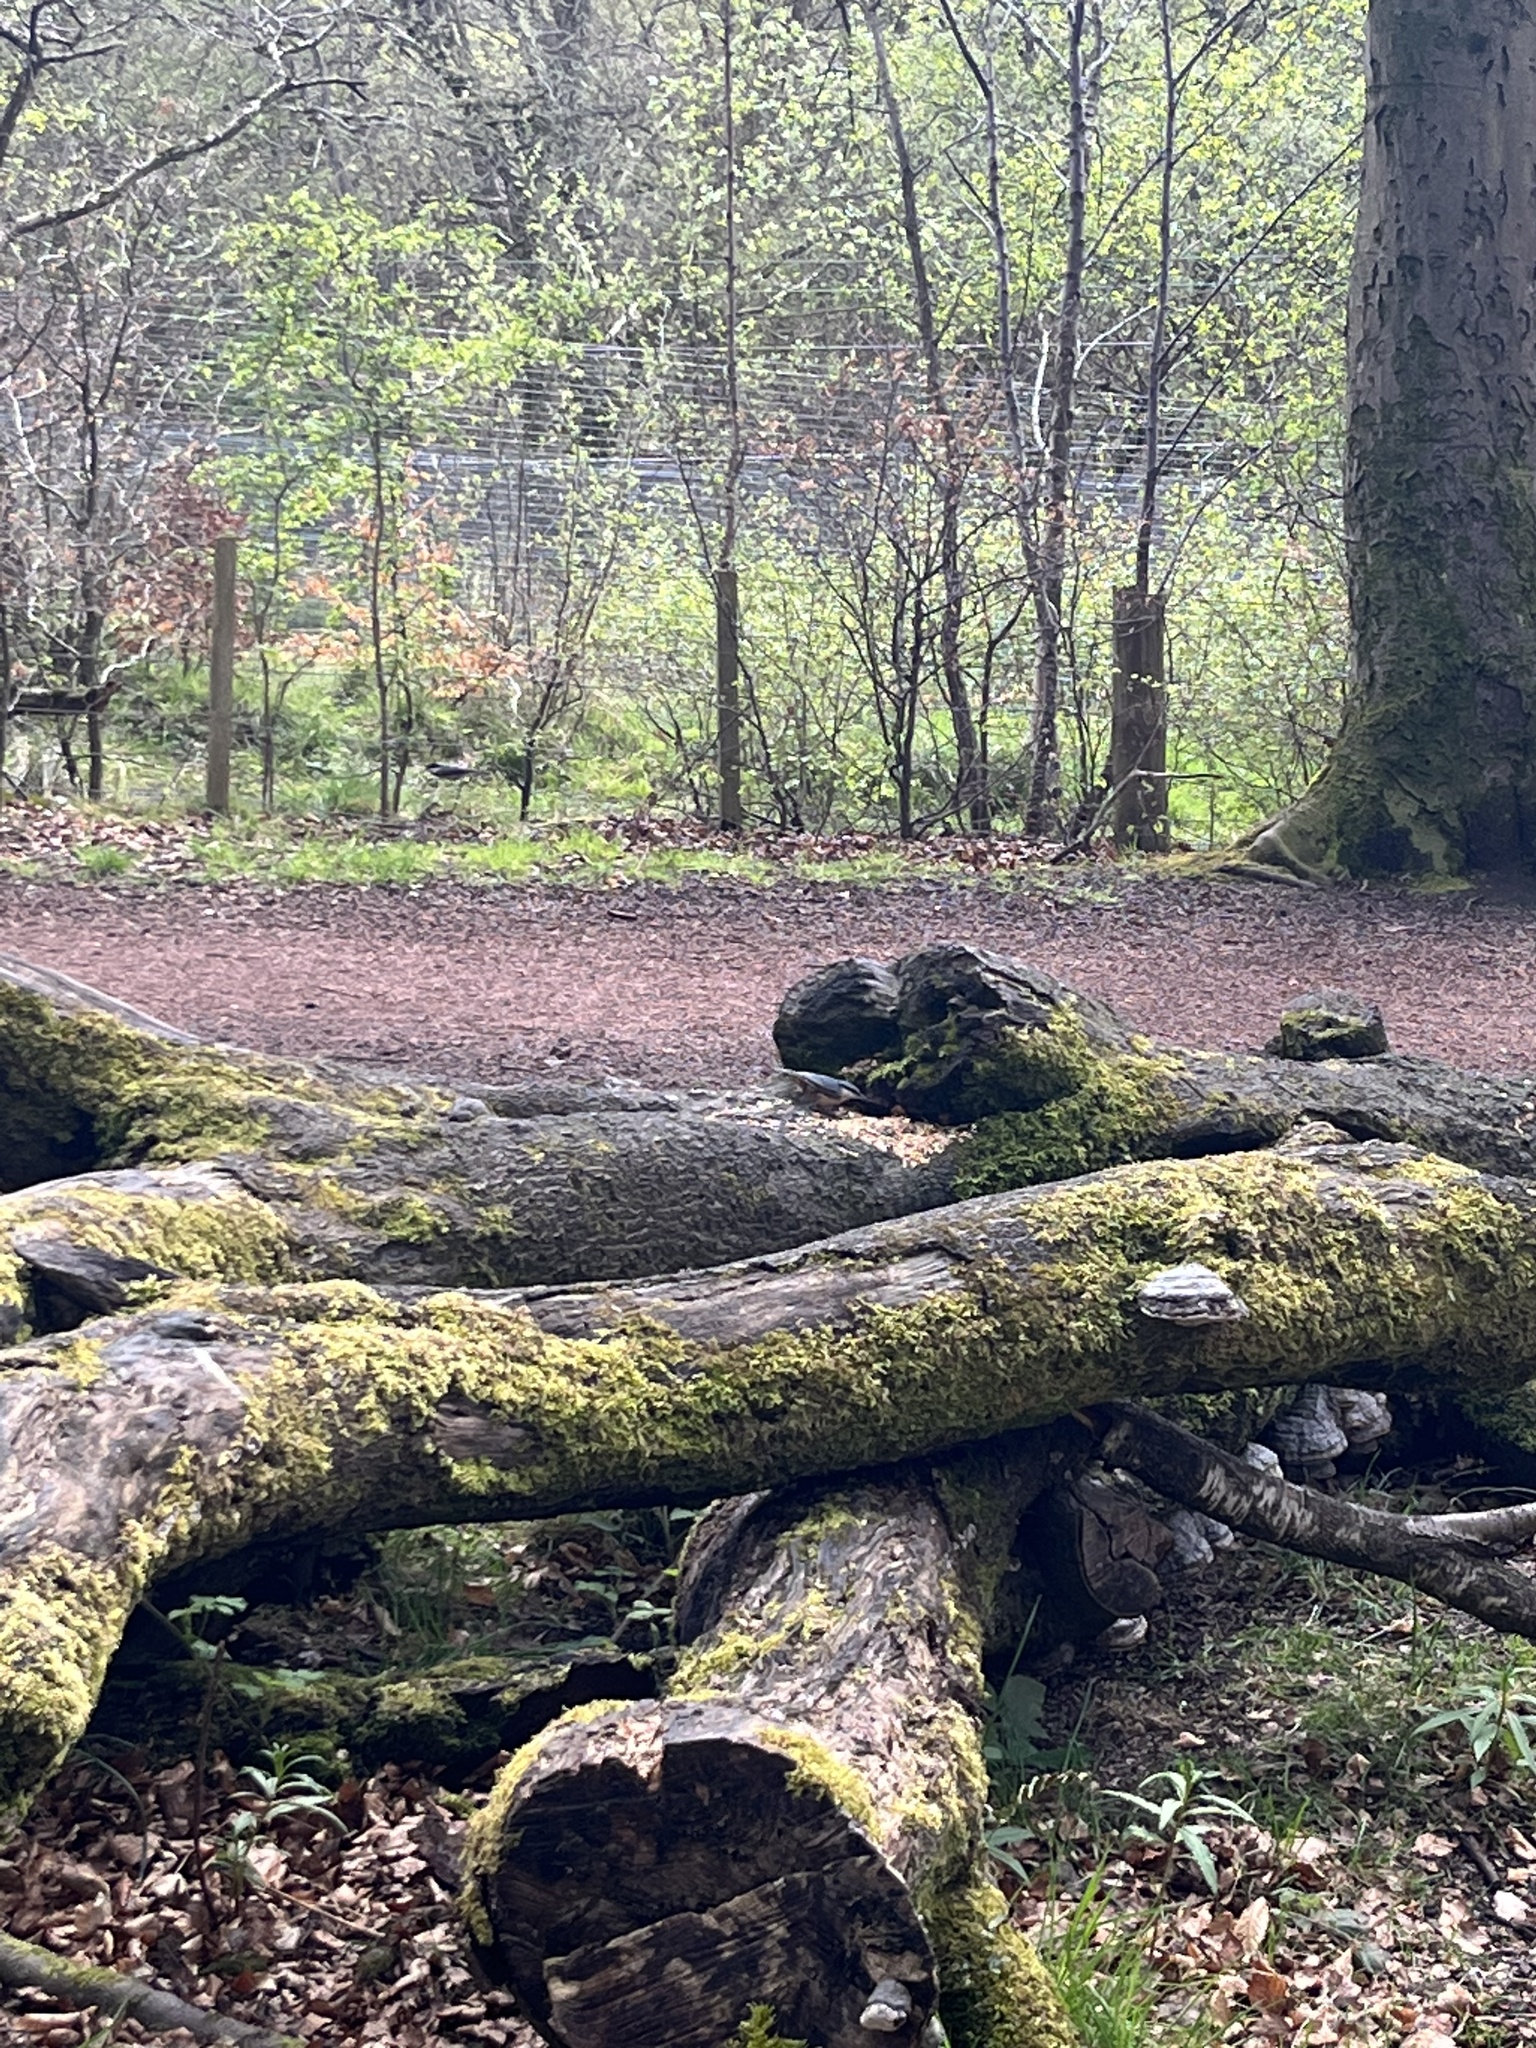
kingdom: Animalia
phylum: Chordata
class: Aves
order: Passeriformes
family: Sittidae
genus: Sitta
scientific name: Sitta europaea
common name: Eurasian nuthatch
